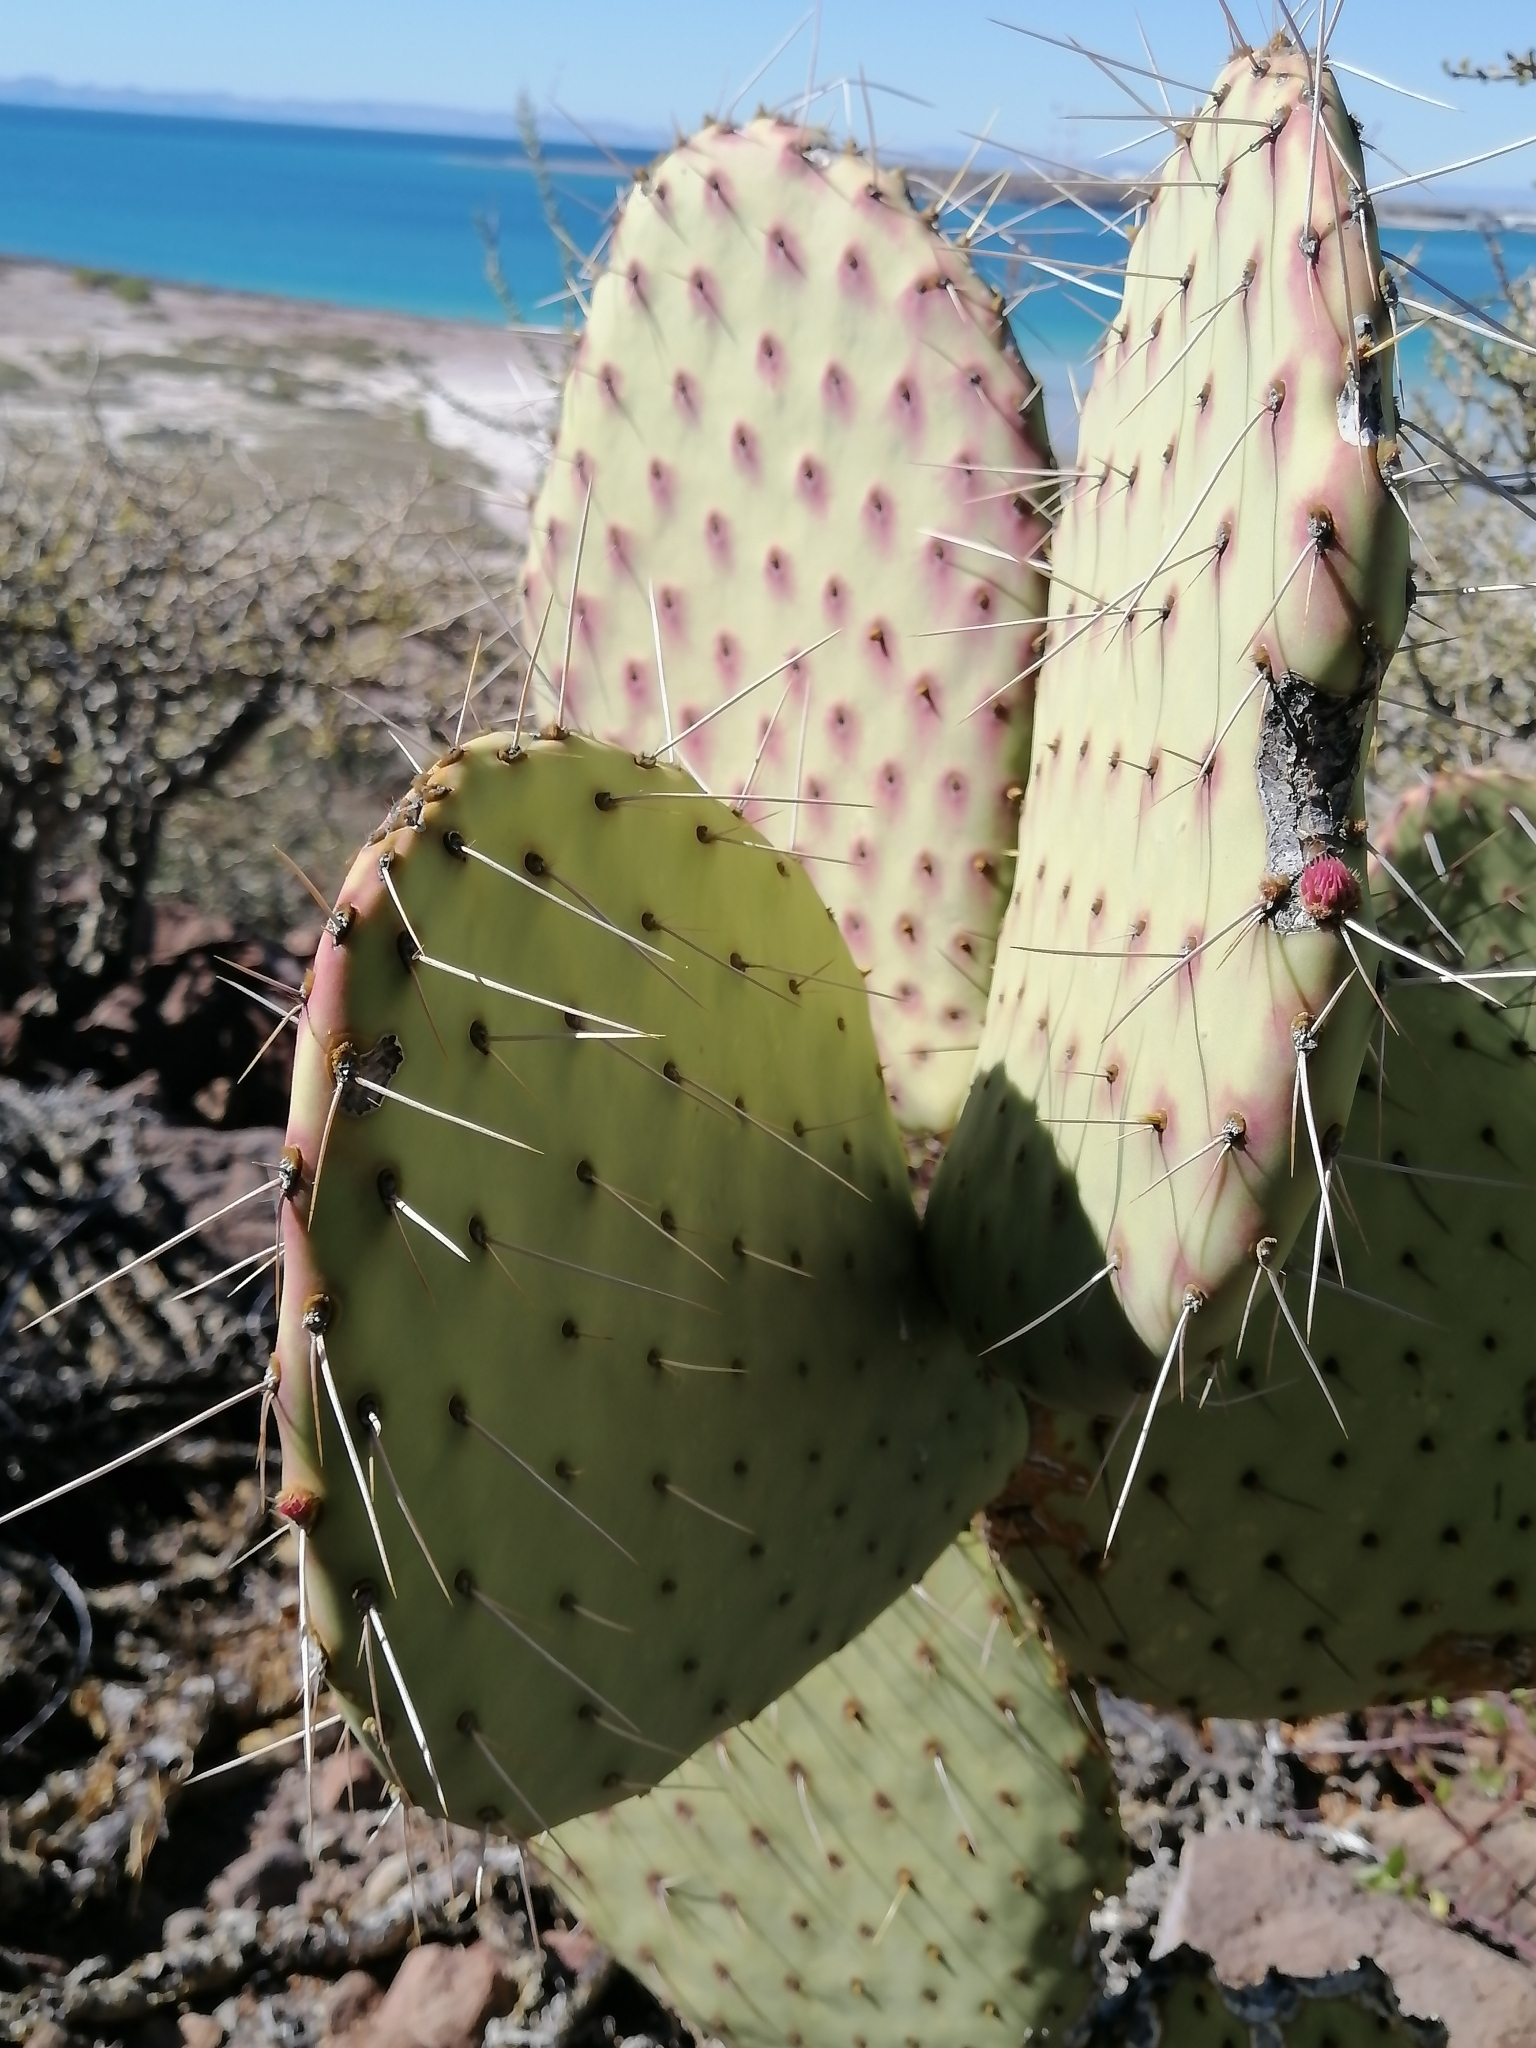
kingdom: Plantae
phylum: Tracheophyta
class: Magnoliopsida
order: Caryophyllales
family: Cactaceae
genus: Opuntia
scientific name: Opuntia tapona
